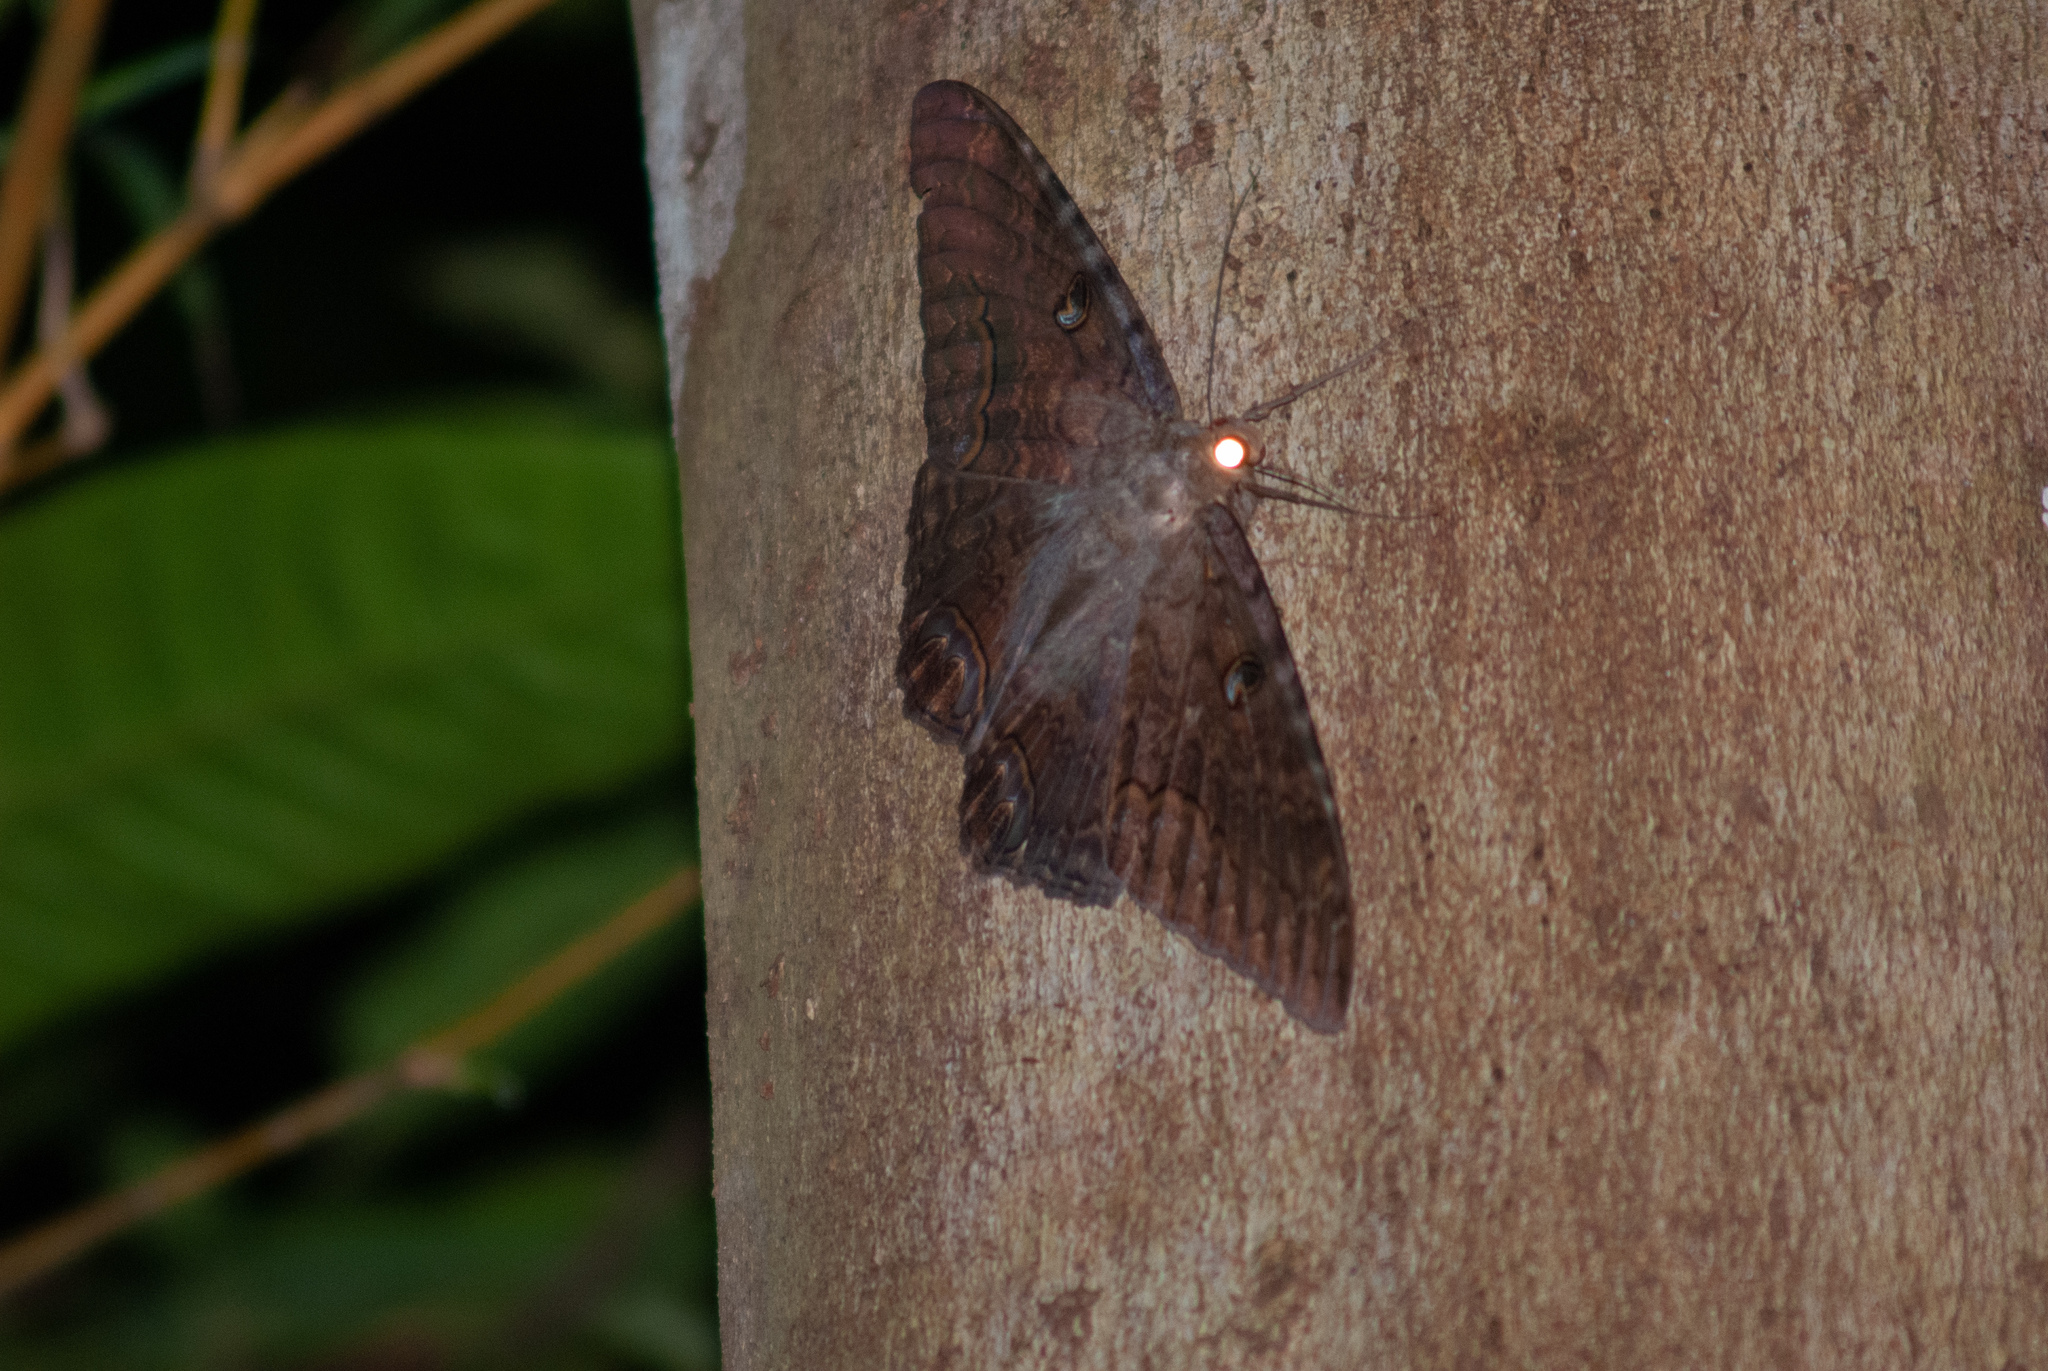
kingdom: Animalia
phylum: Arthropoda
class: Insecta
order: Lepidoptera
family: Erebidae
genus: Ascalapha
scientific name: Ascalapha odorata
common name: Black witch
